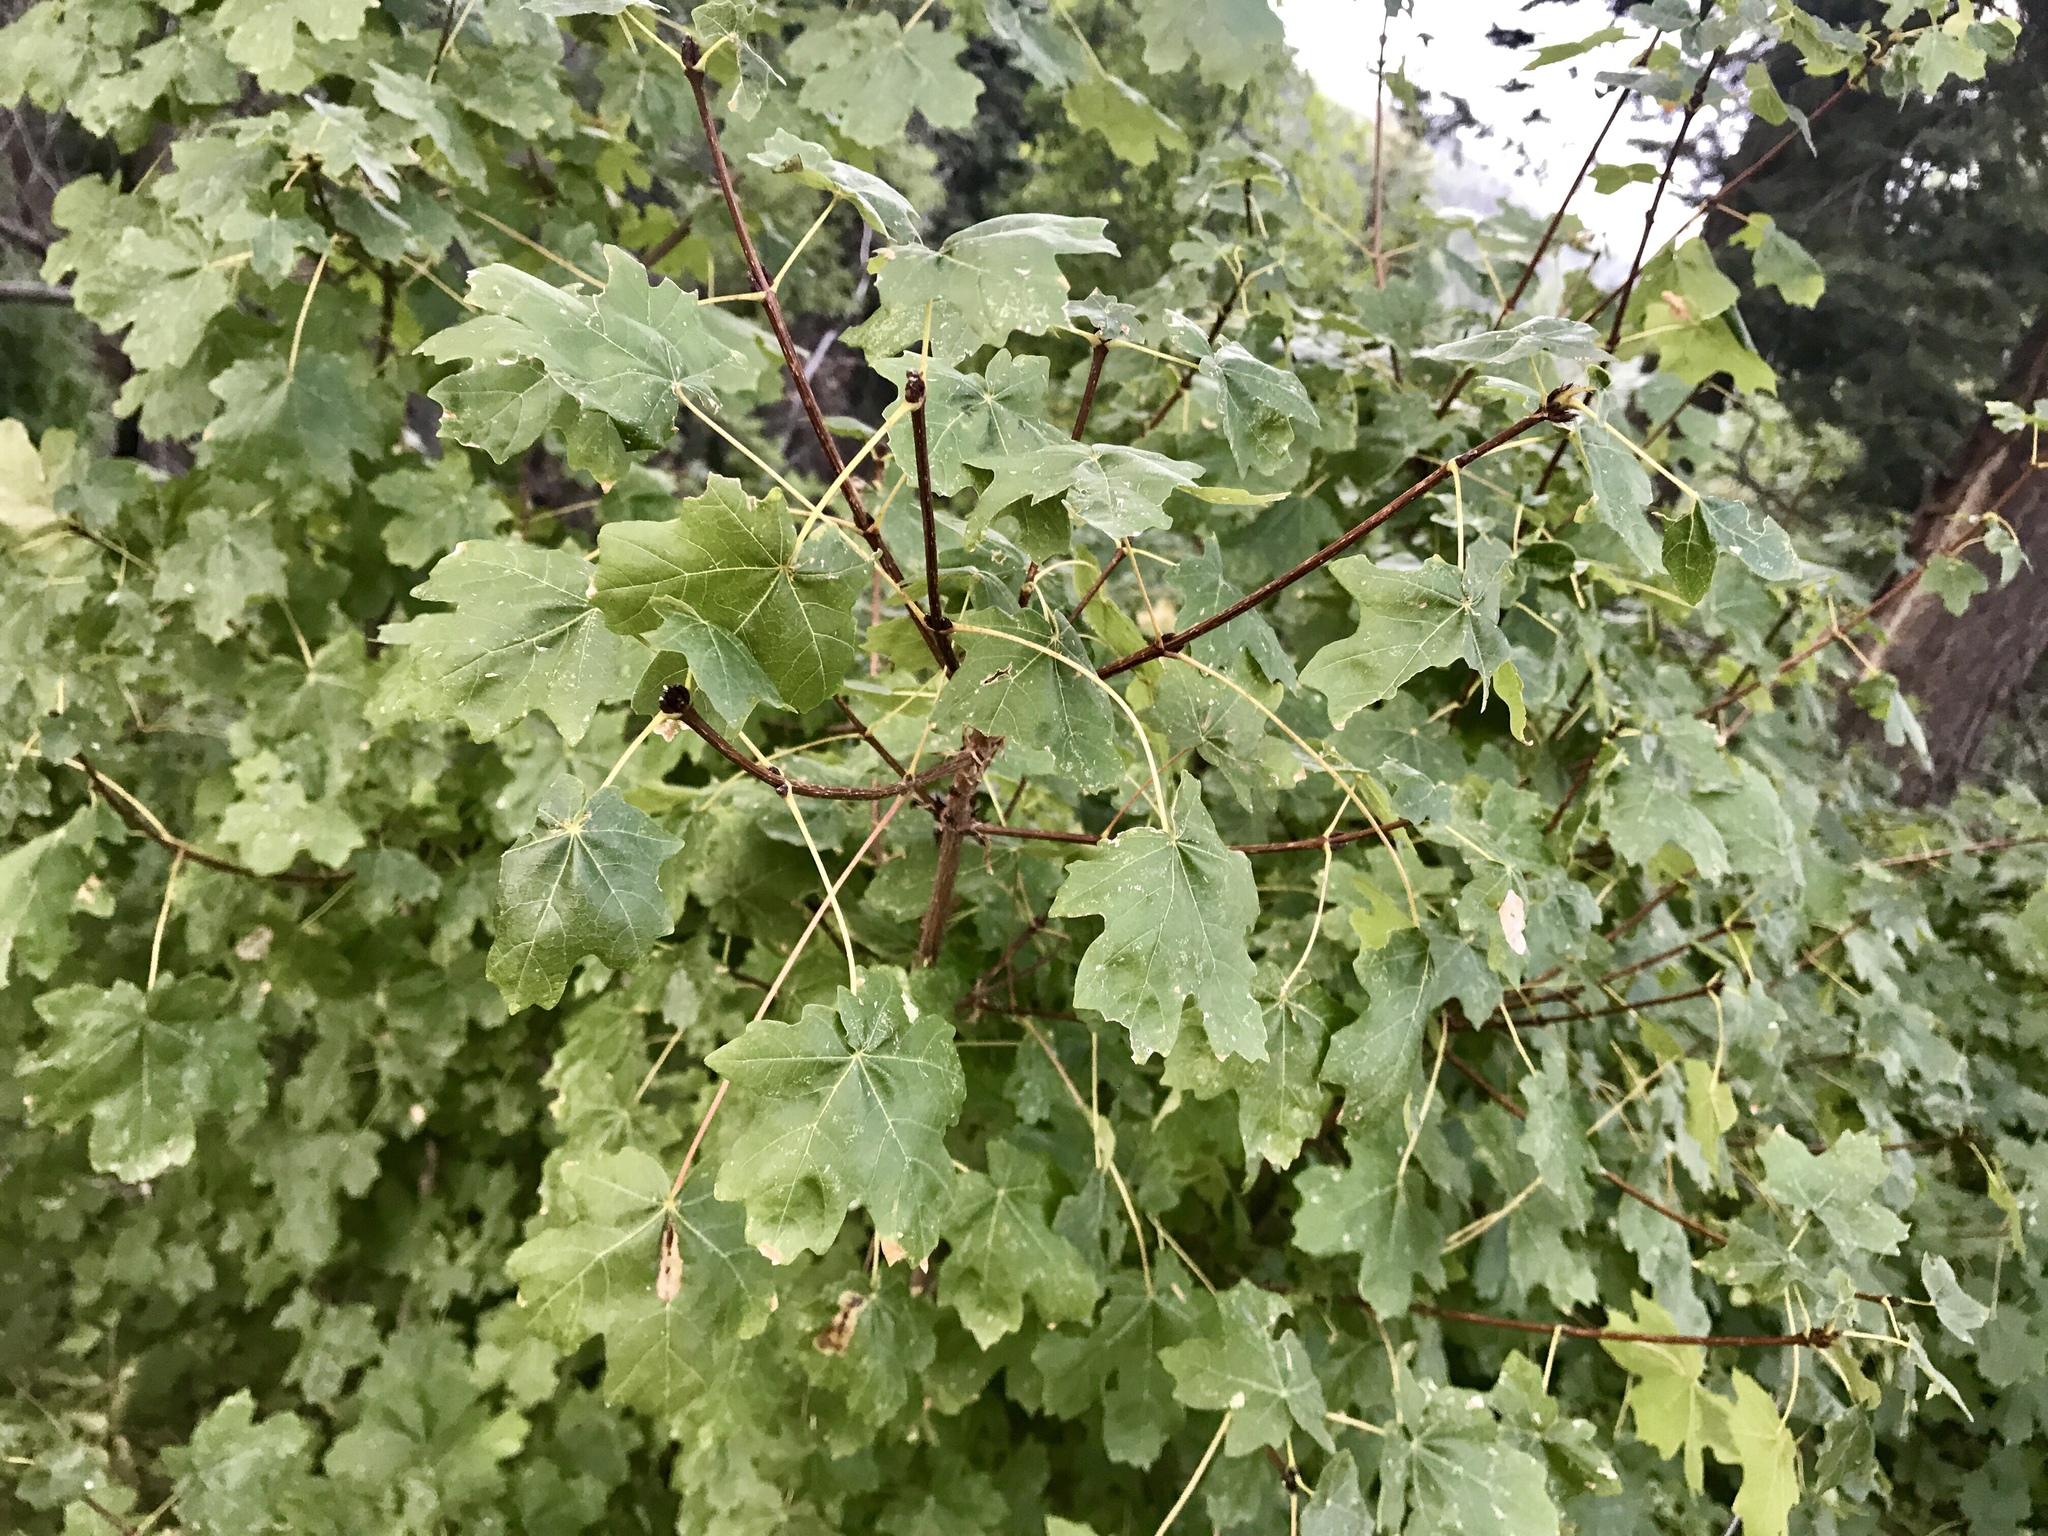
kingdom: Plantae
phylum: Tracheophyta
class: Magnoliopsida
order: Sapindales
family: Sapindaceae
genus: Acer
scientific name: Acer grandidentatum
